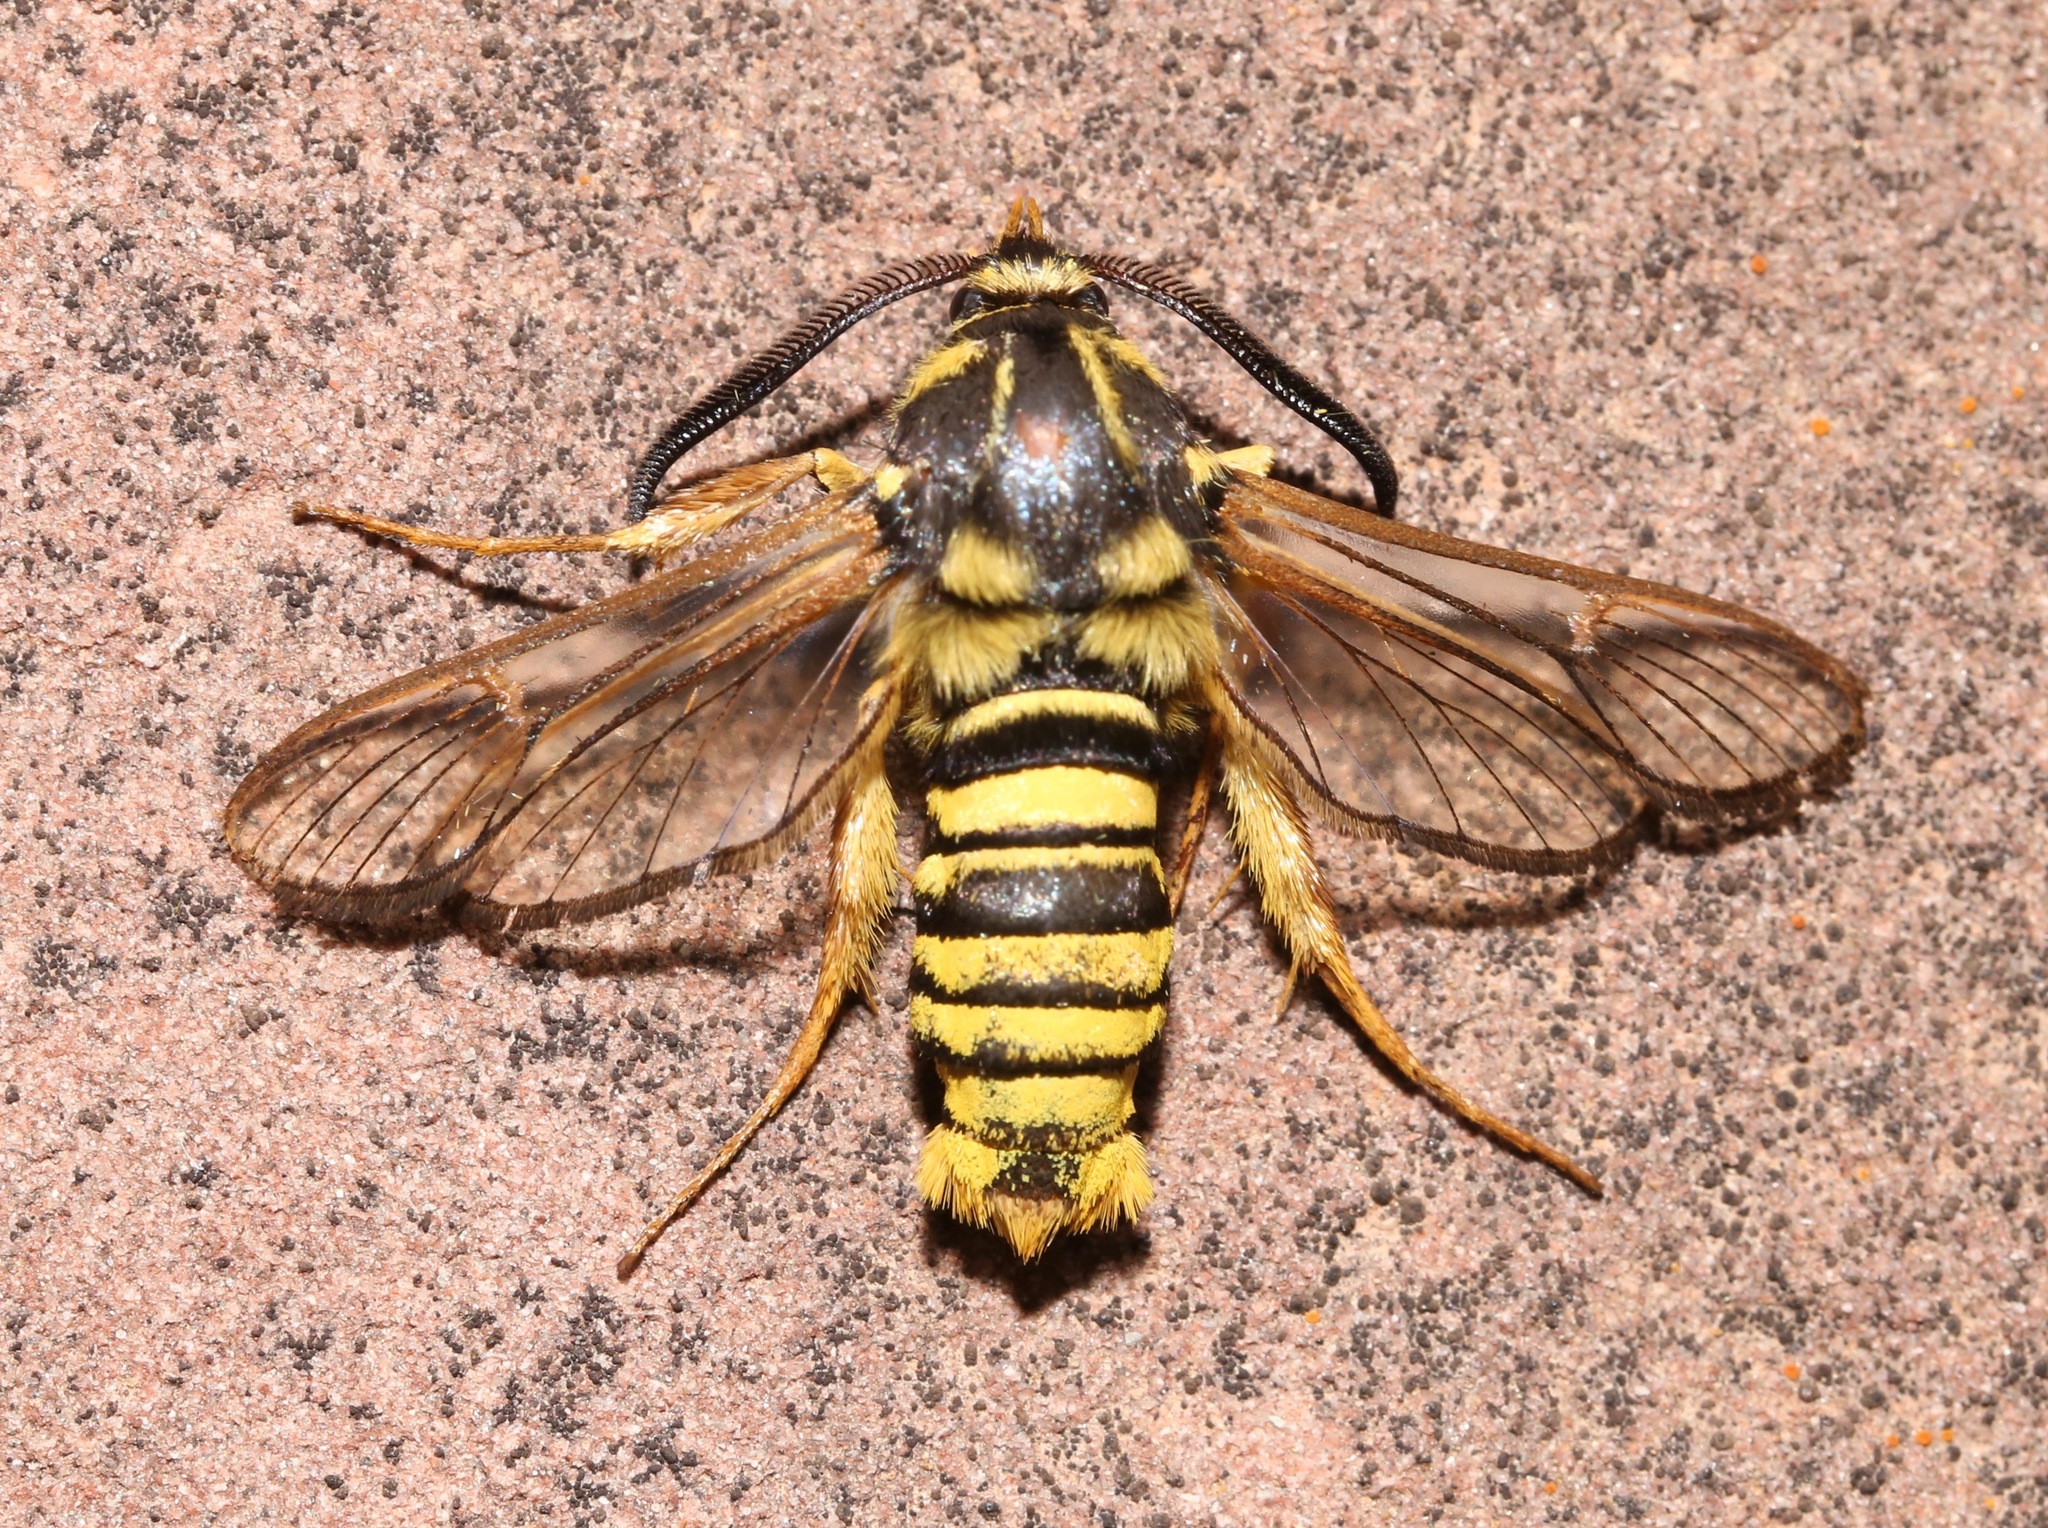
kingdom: Animalia
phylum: Arthropoda
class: Insecta
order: Lepidoptera
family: Sesiidae
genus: Sesia
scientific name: Sesia tibiale
